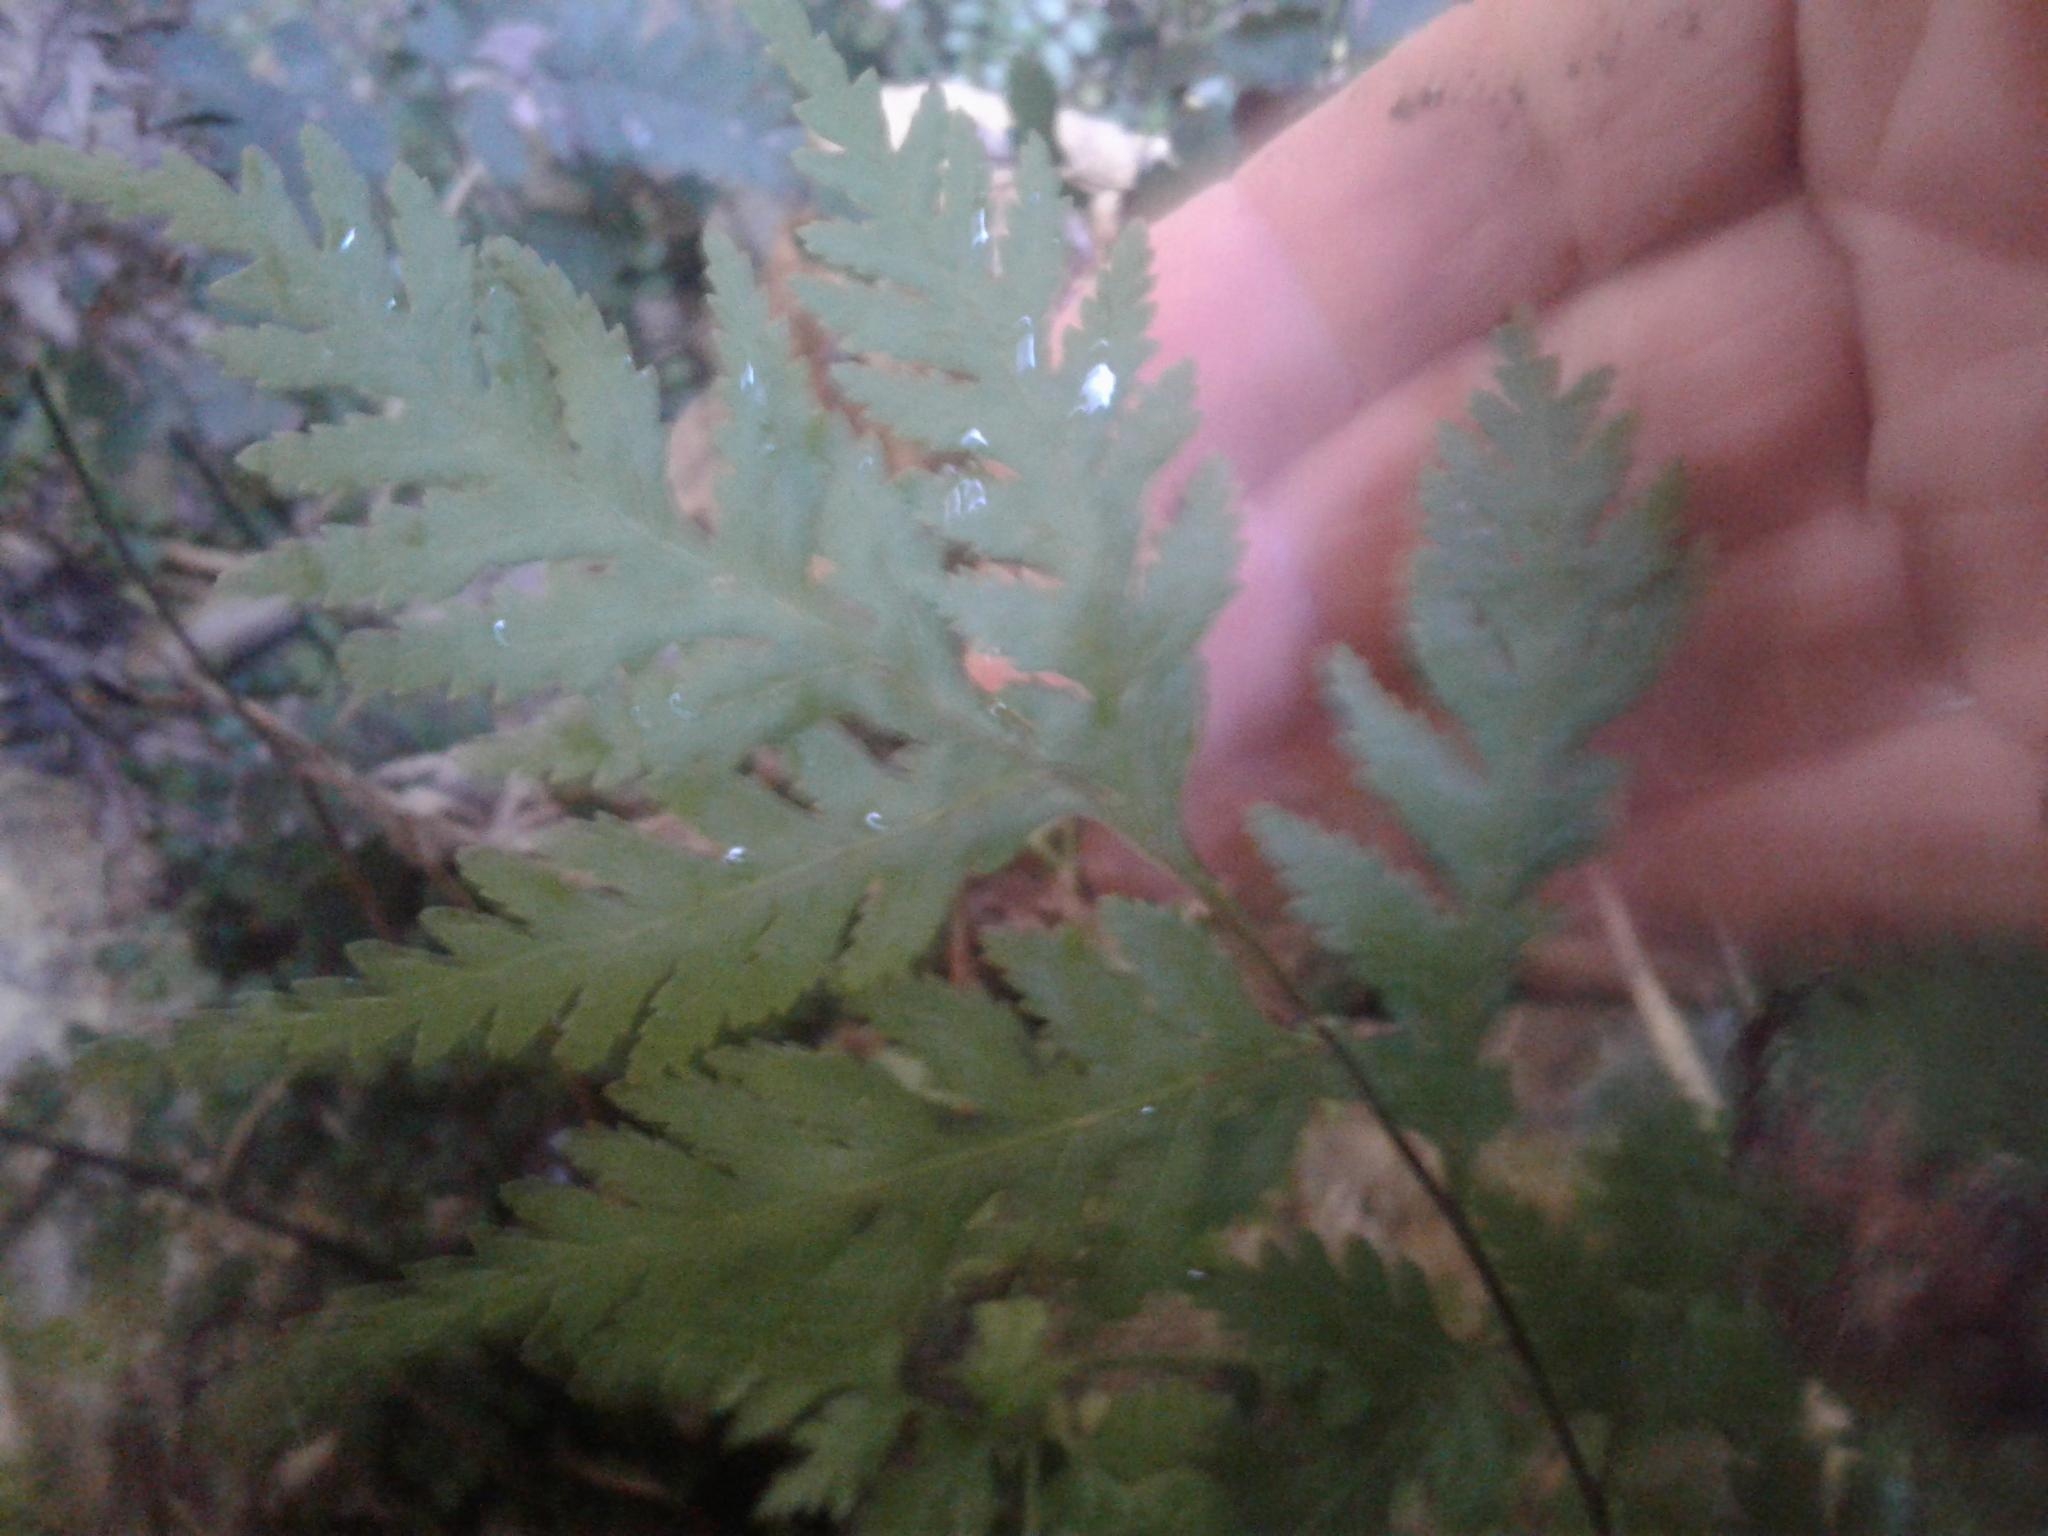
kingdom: Plantae
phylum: Tracheophyta
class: Polypodiopsida
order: Polypodiales
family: Pteridaceae
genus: Pteris
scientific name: Pteris macilenta
